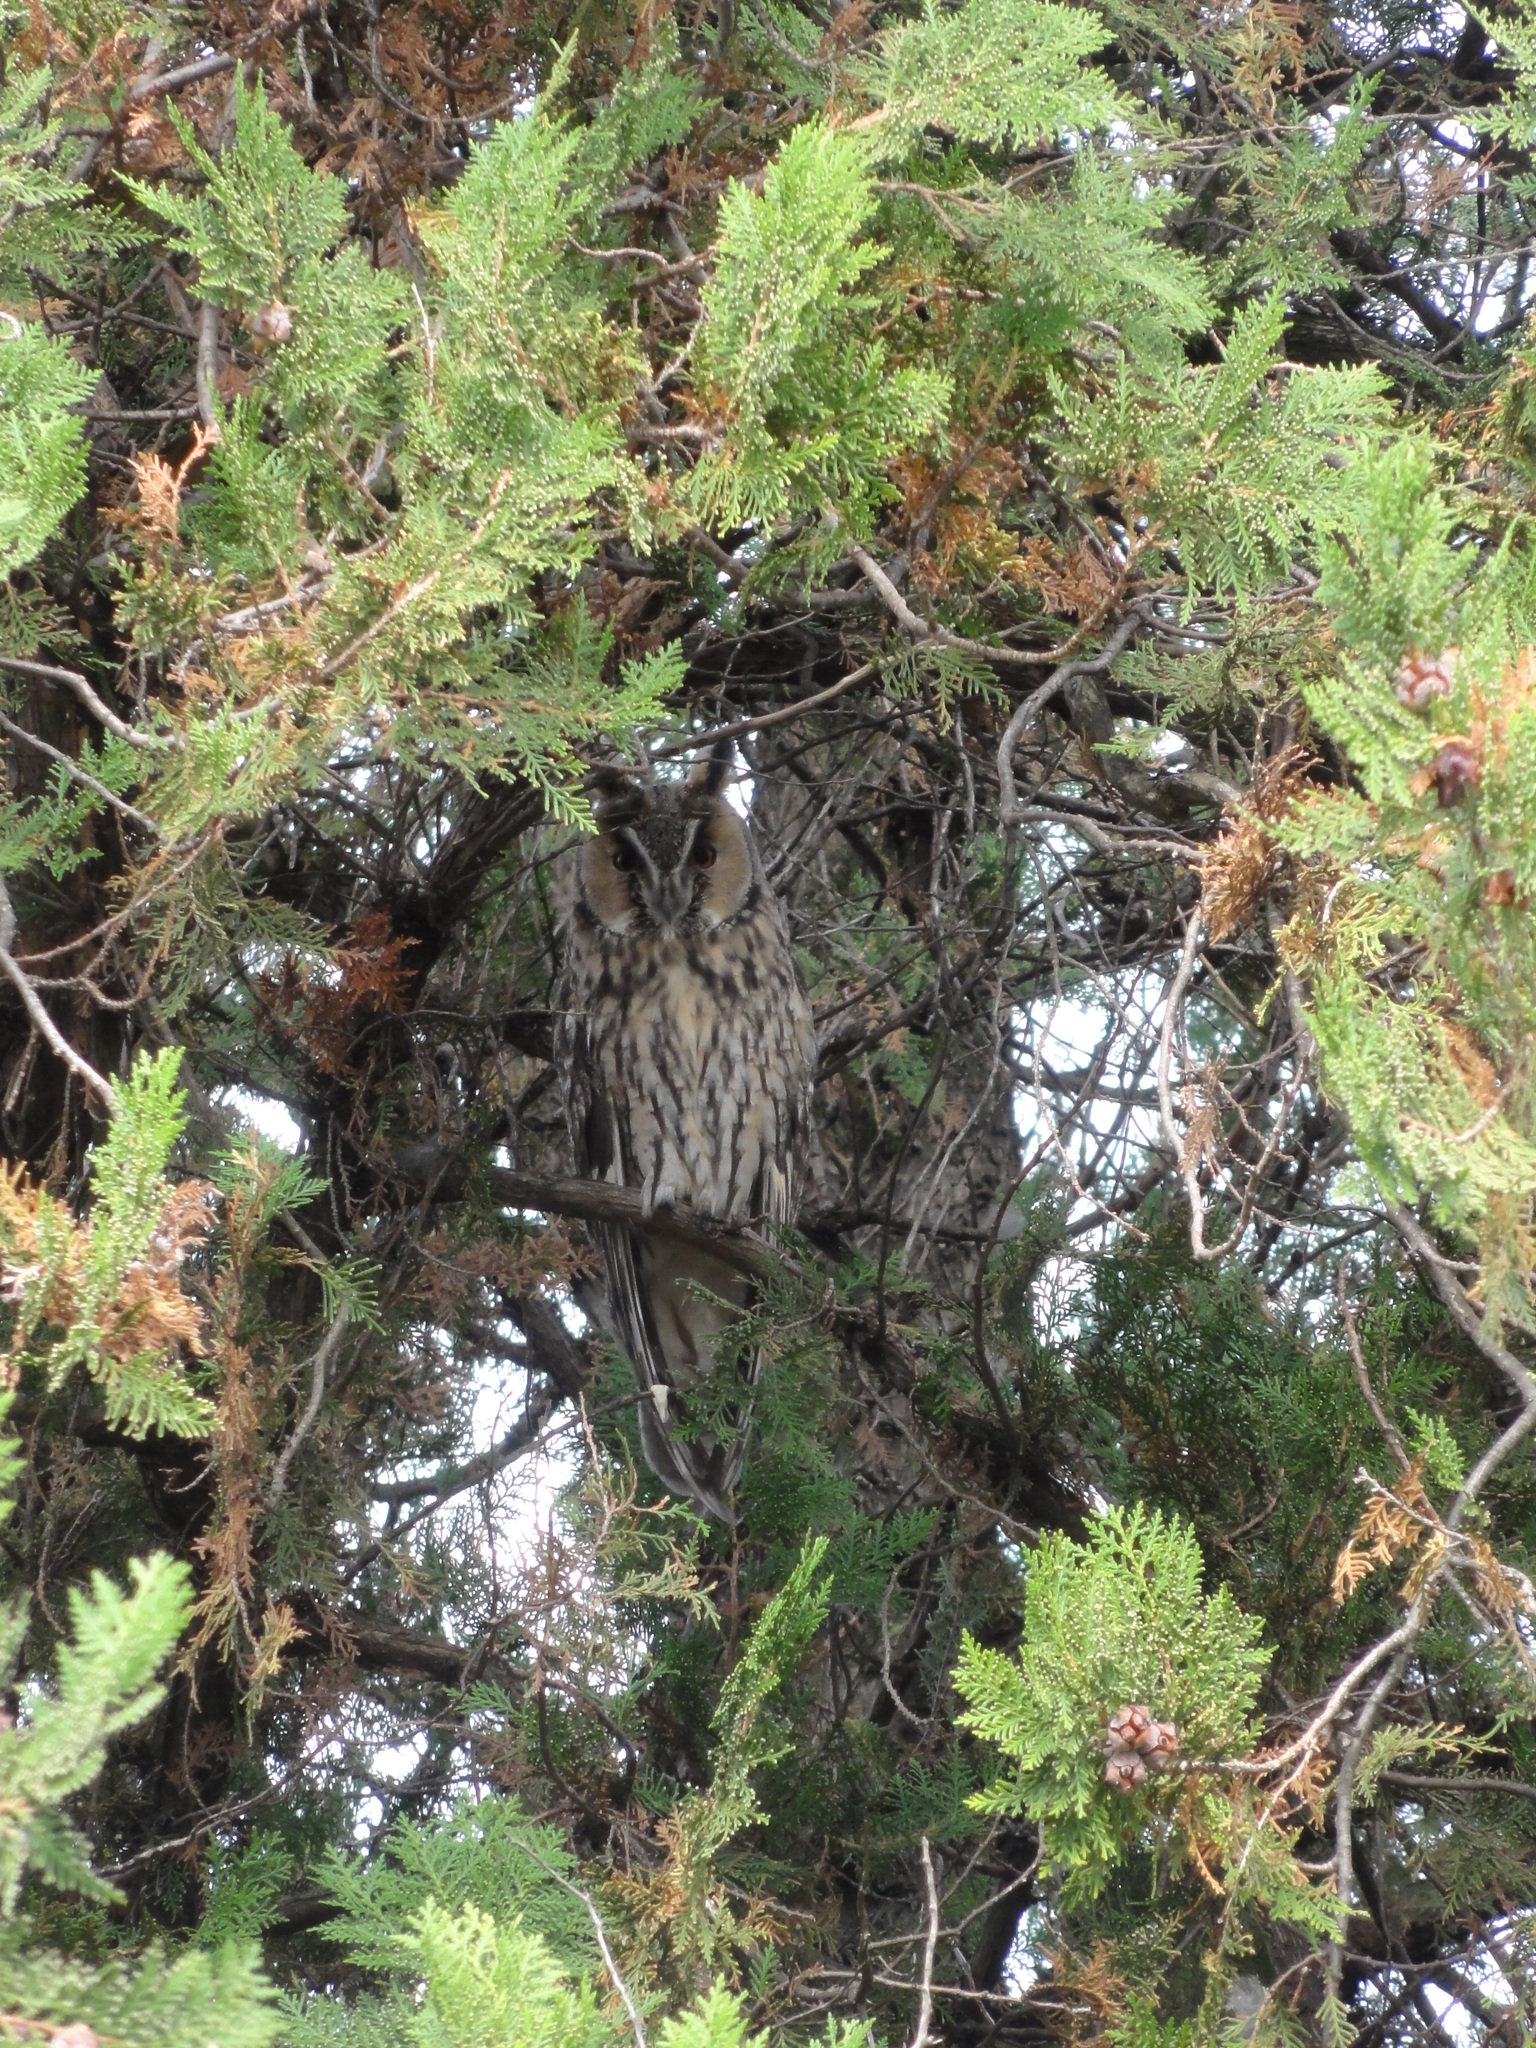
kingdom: Animalia
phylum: Chordata
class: Aves
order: Strigiformes
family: Strigidae
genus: Asio
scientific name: Asio otus
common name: Long-eared owl
